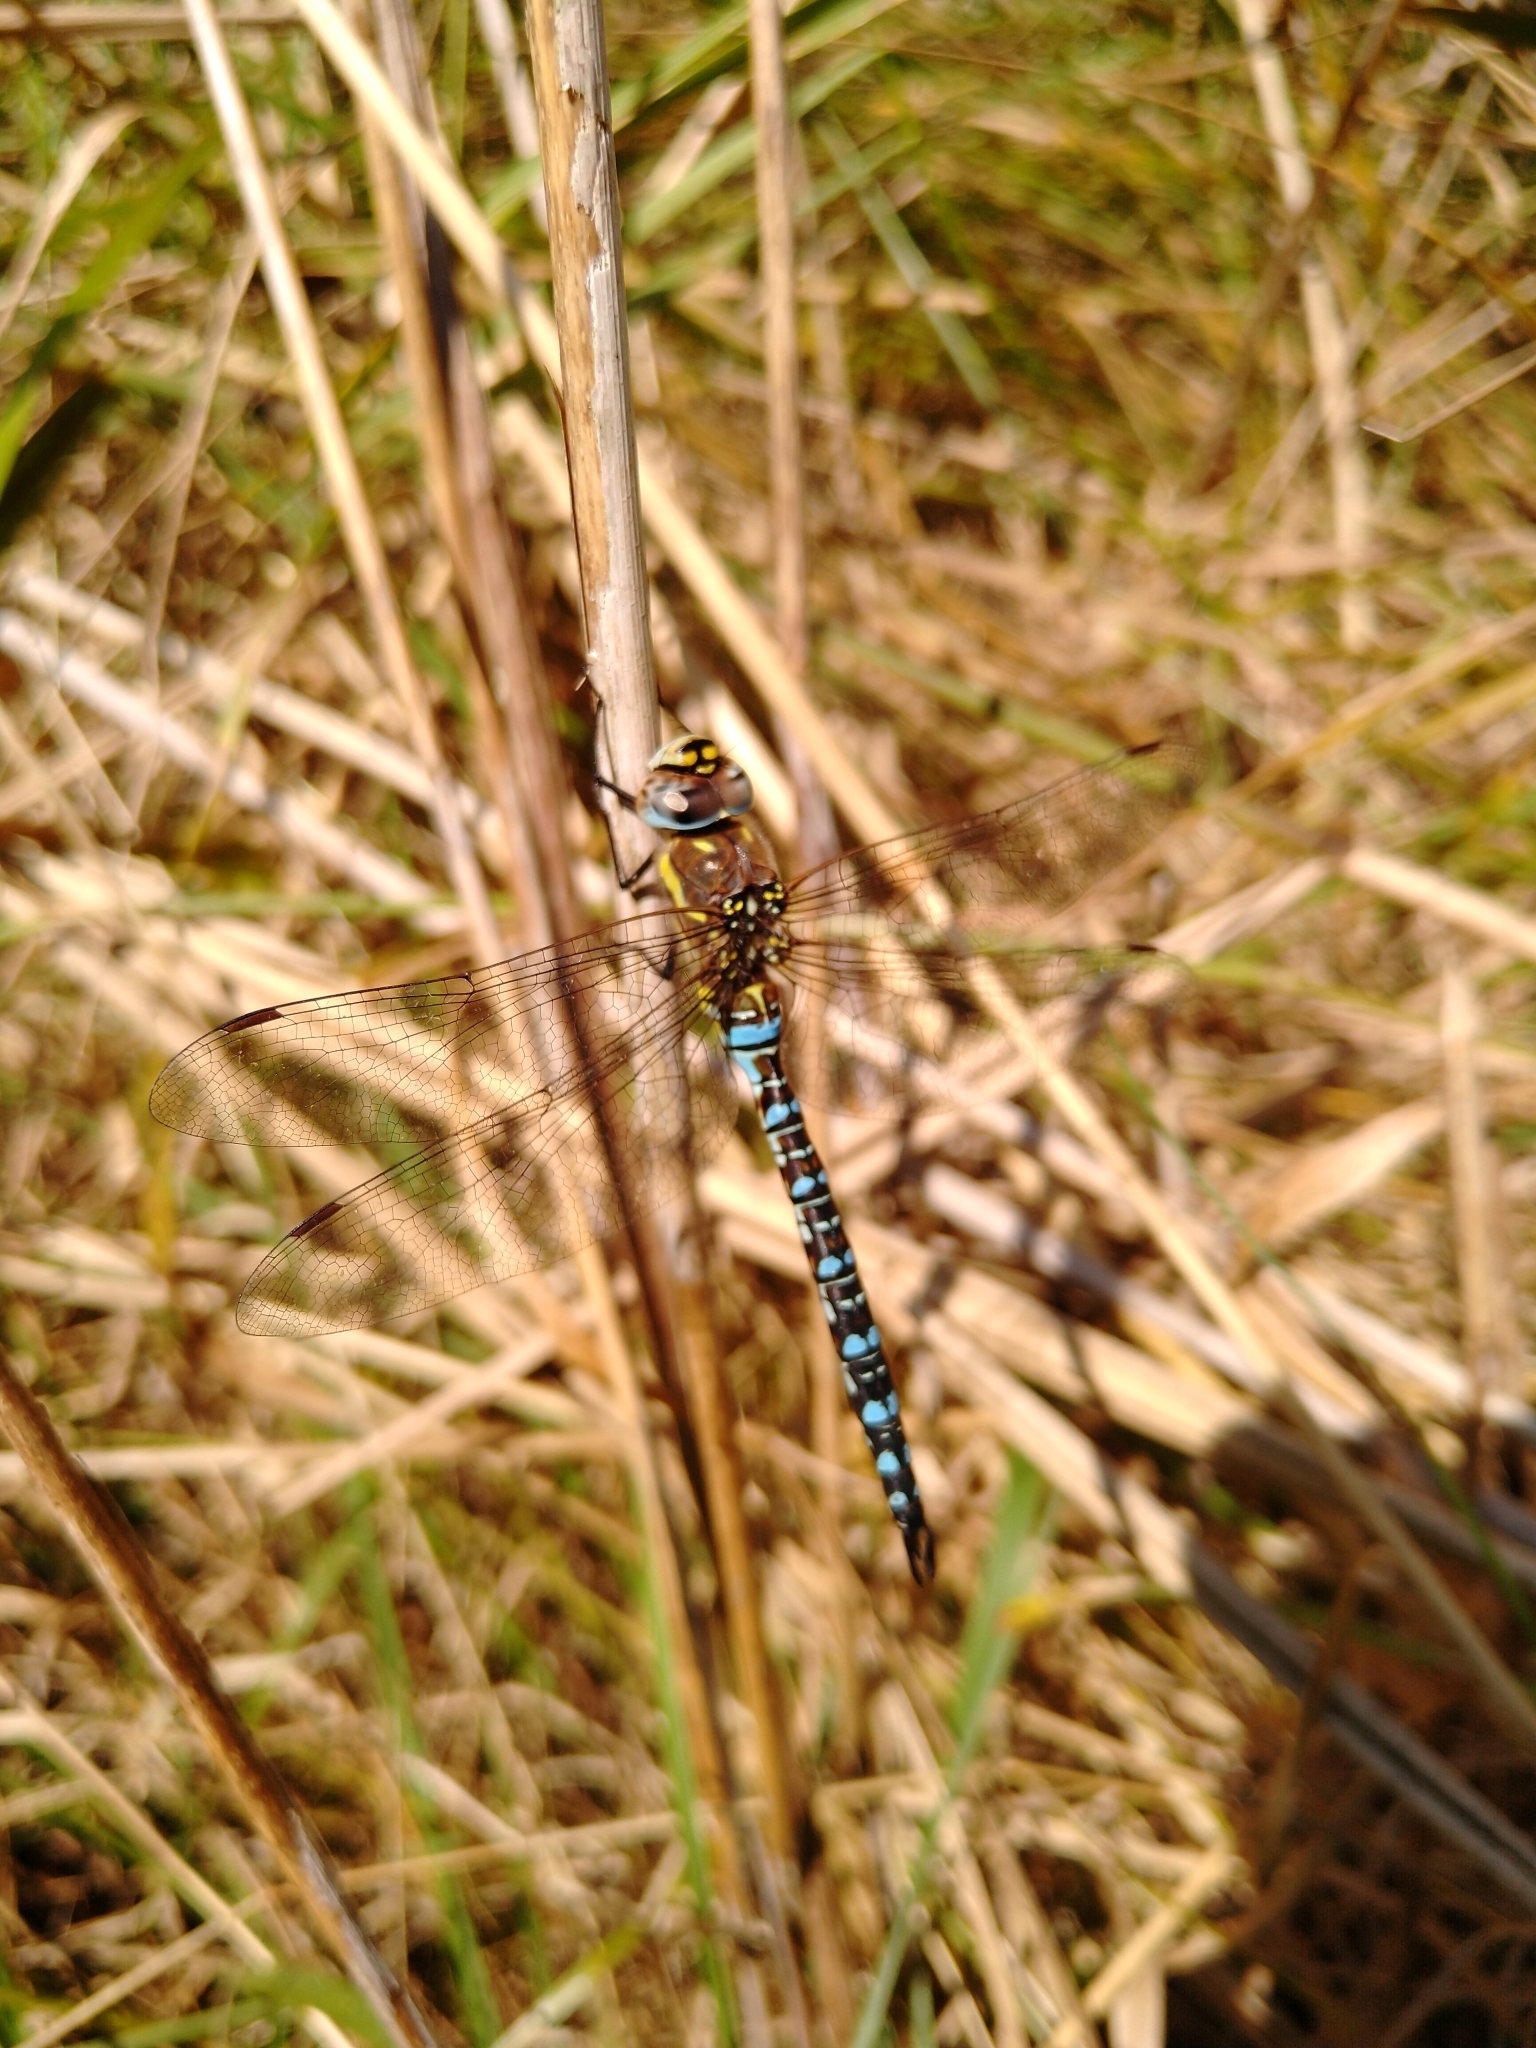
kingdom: Animalia
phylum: Arthropoda
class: Insecta
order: Odonata
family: Aeshnidae
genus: Aeshna
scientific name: Aeshna mixta
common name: Migrant hawker
